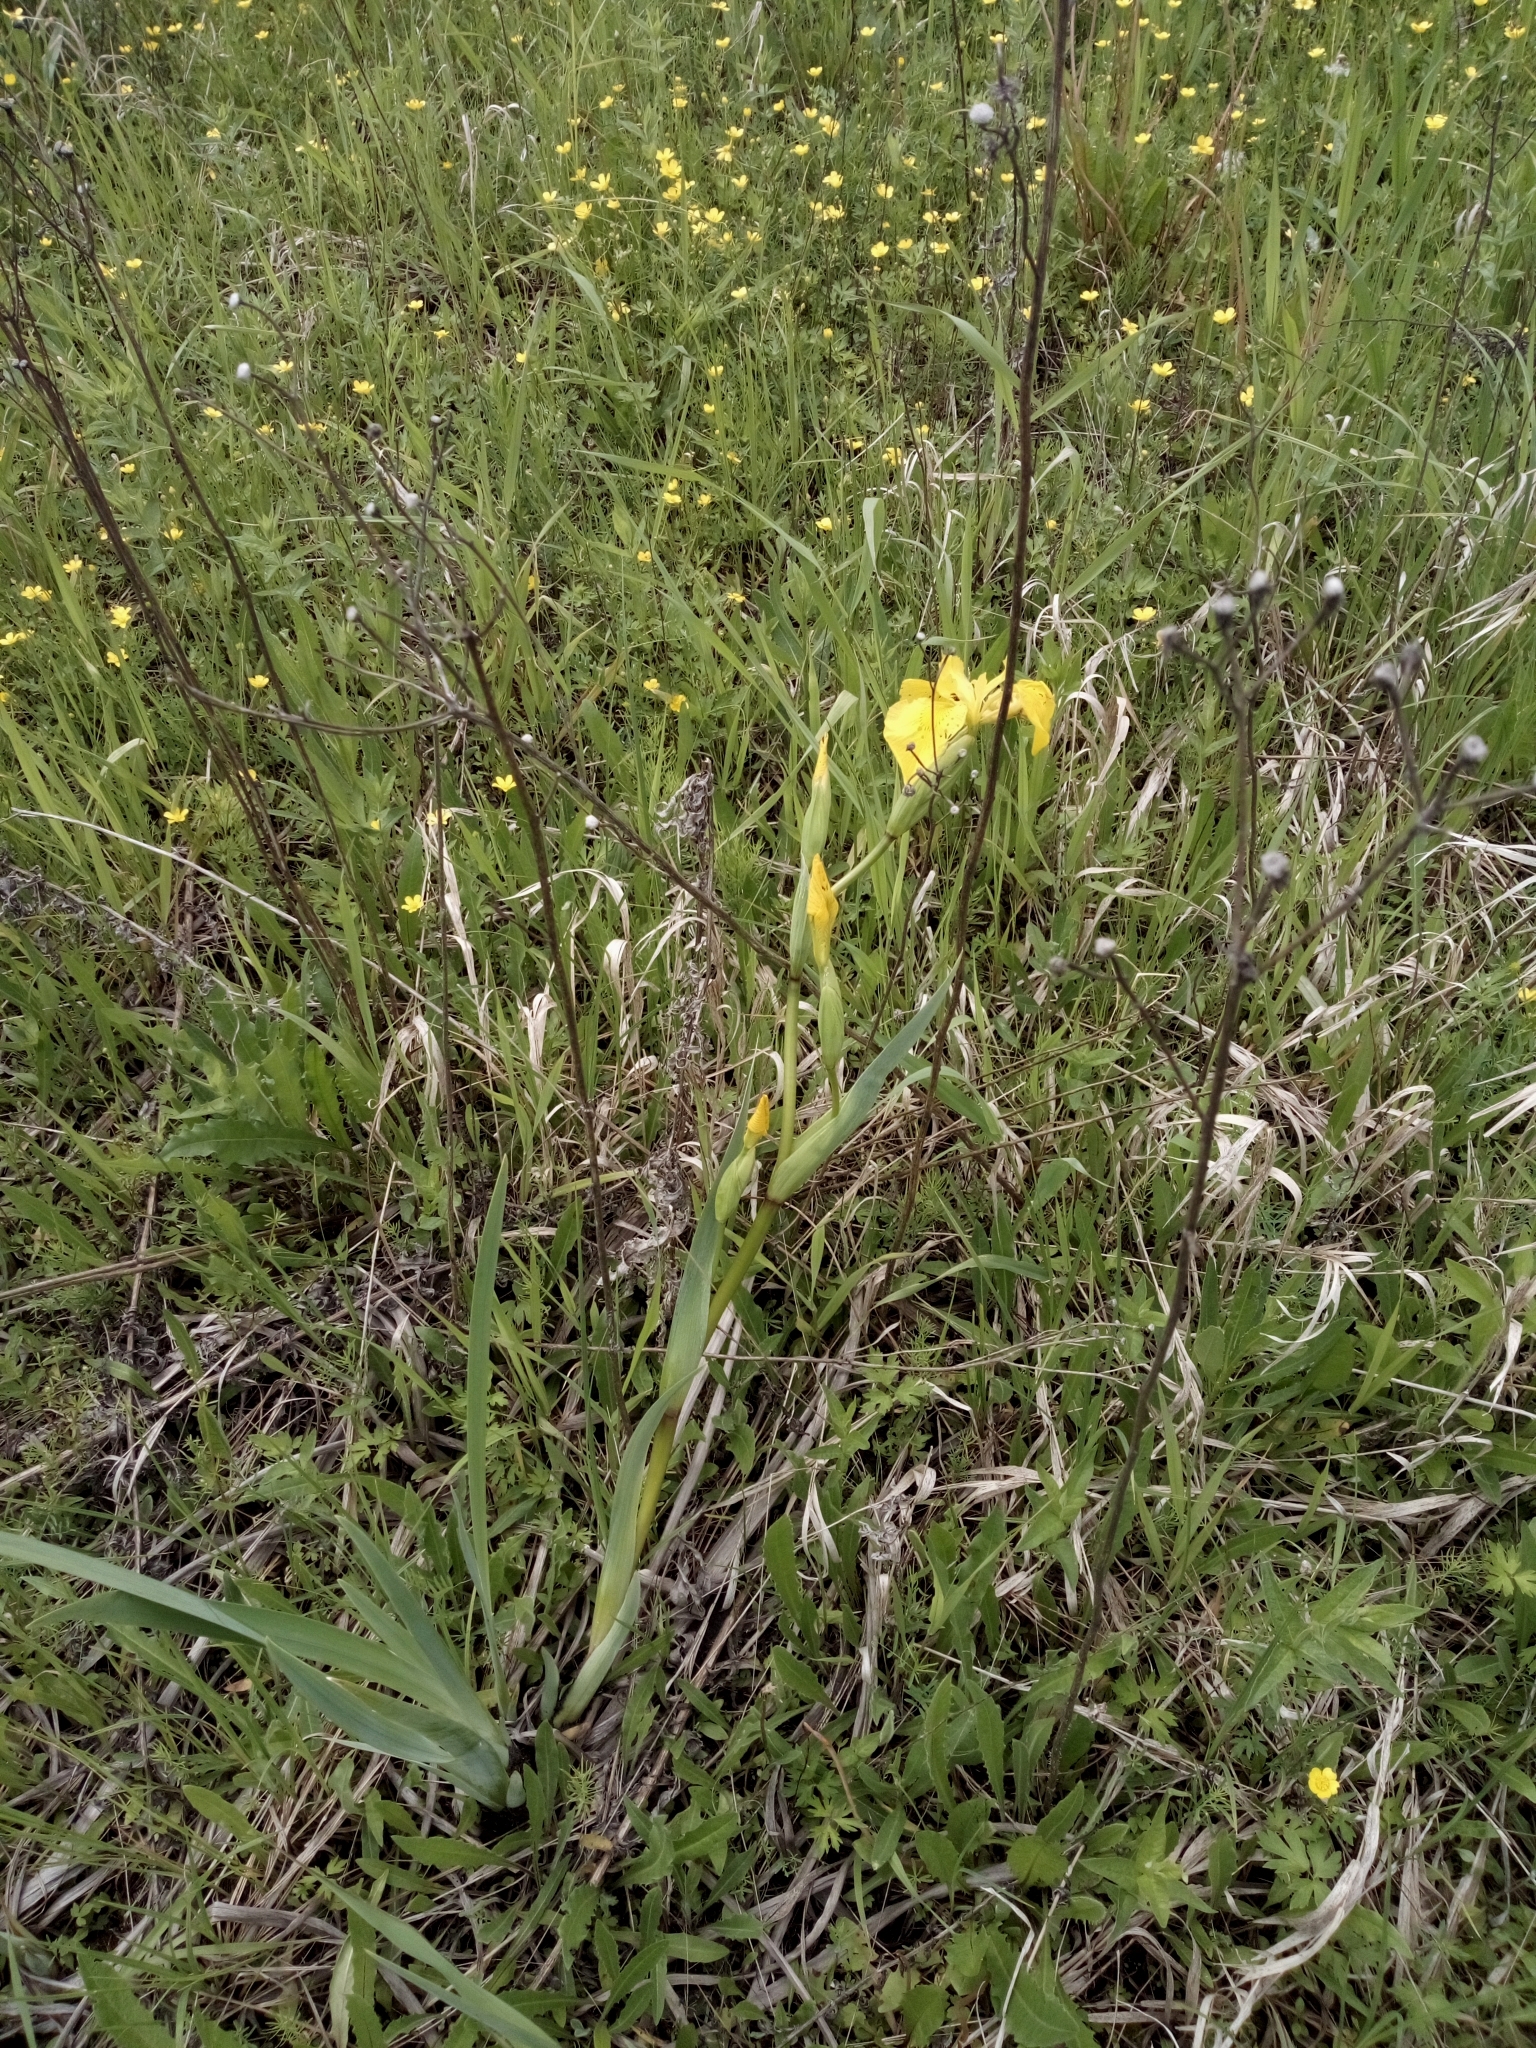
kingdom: Plantae
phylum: Tracheophyta
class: Liliopsida
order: Asparagales
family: Iridaceae
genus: Iris
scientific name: Iris pseudacorus
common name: Yellow flag
